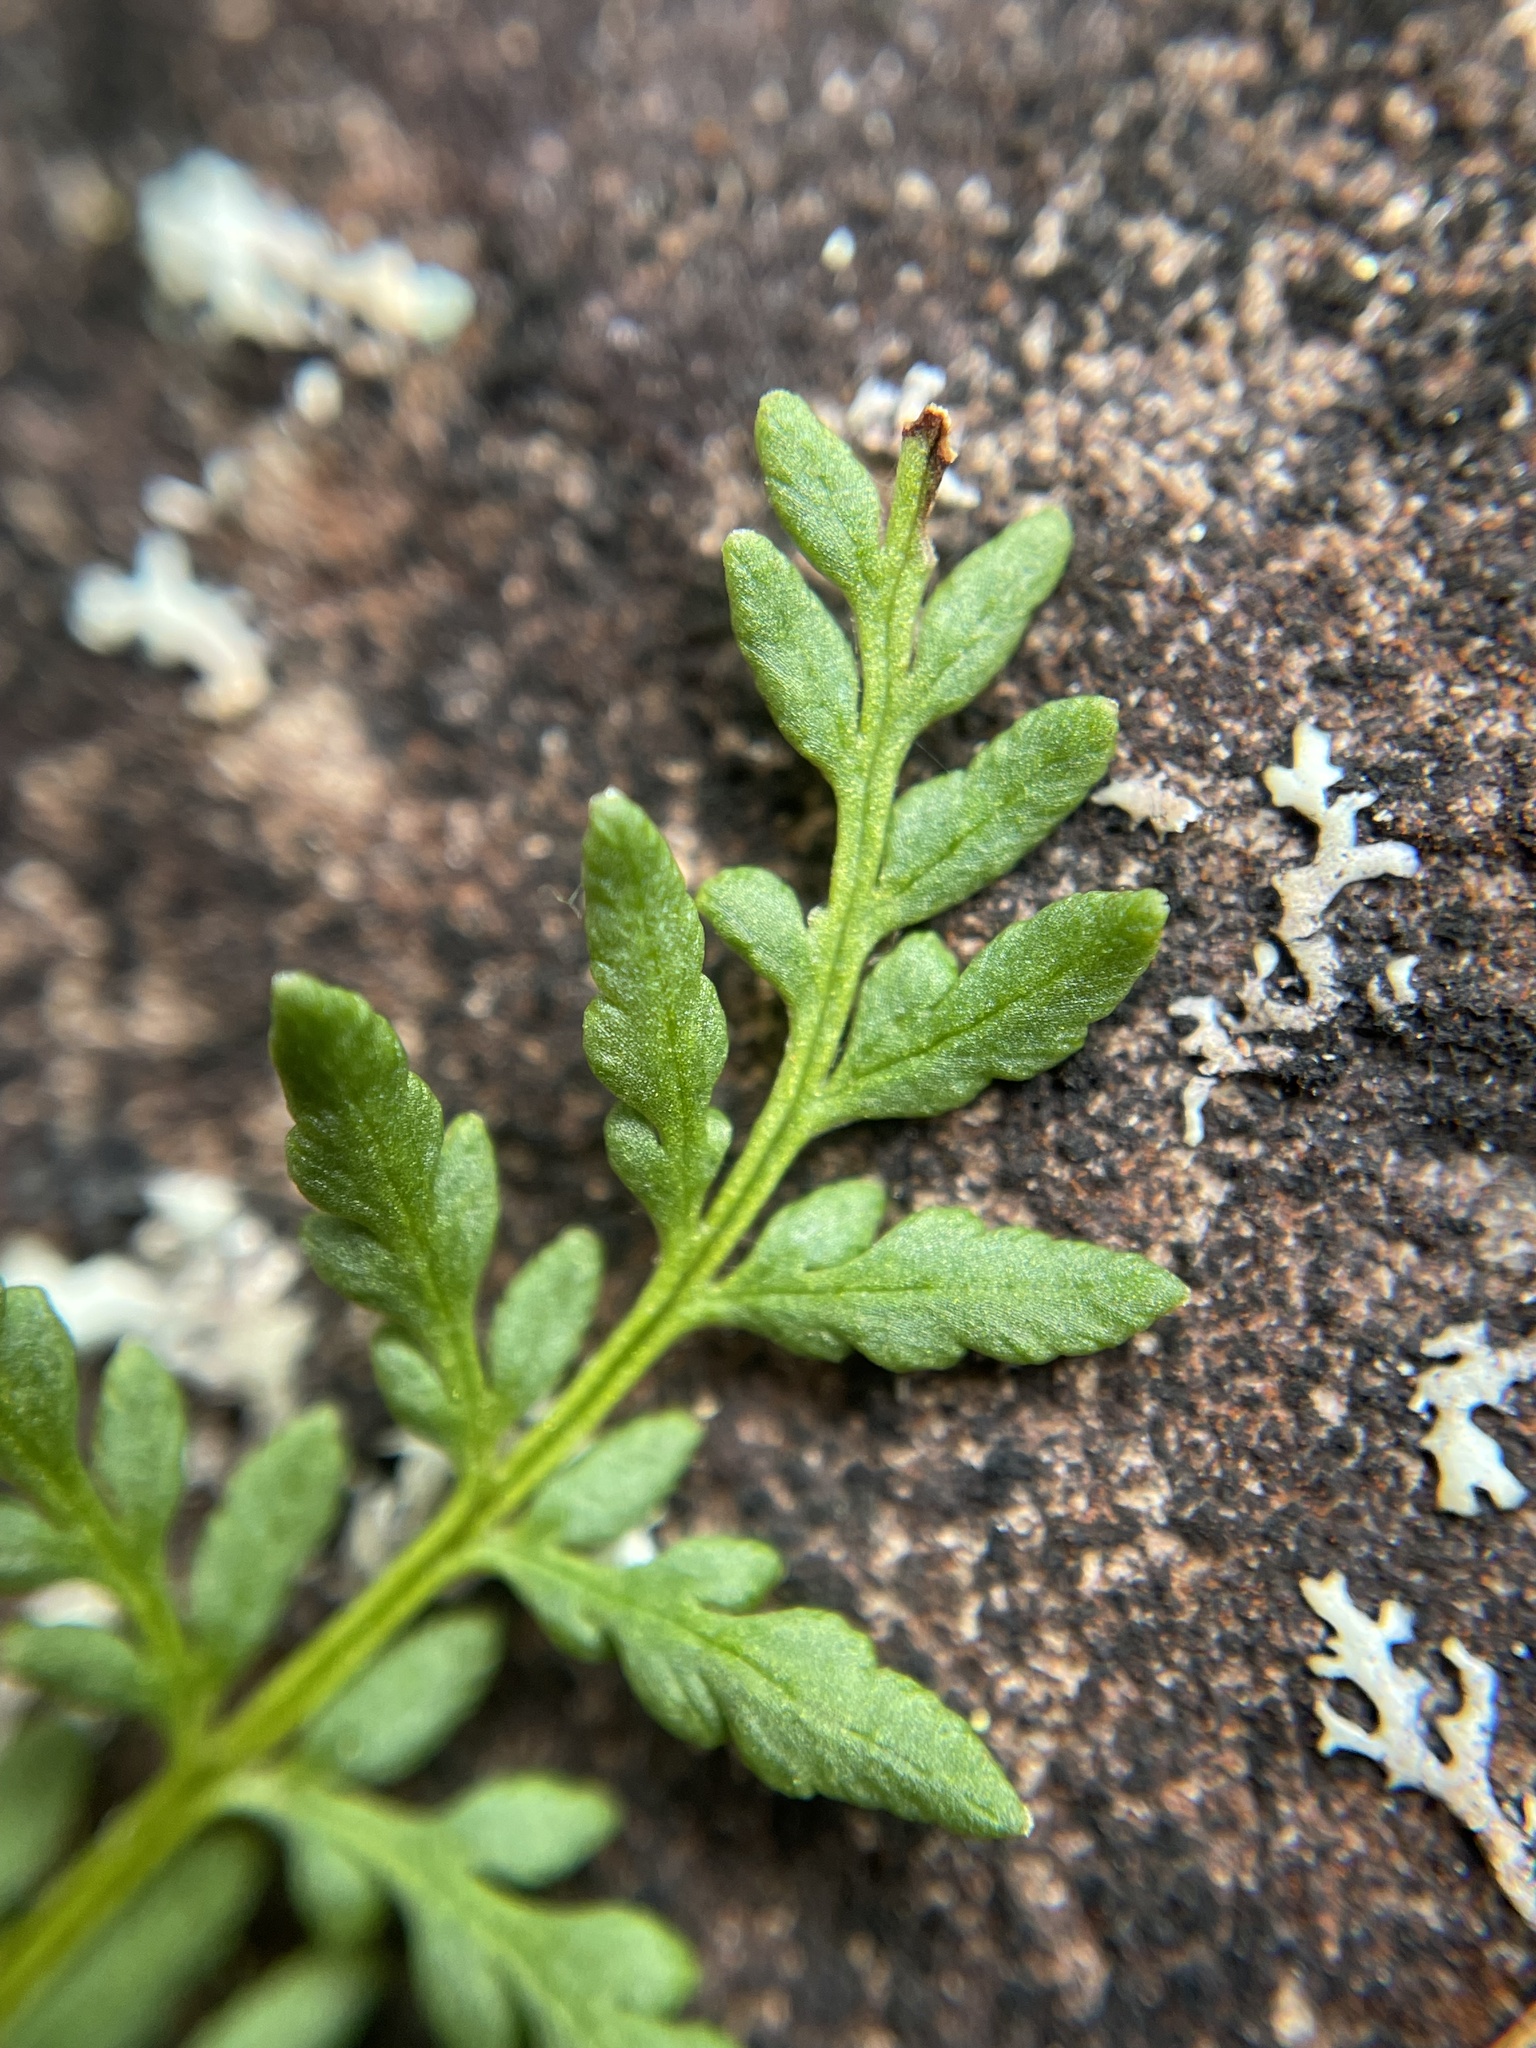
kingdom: Plantae
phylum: Tracheophyta
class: Polypodiopsida
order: Polypodiales
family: Pteridaceae
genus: Cheilanthes
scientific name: Cheilanthes austrotenuifolia
